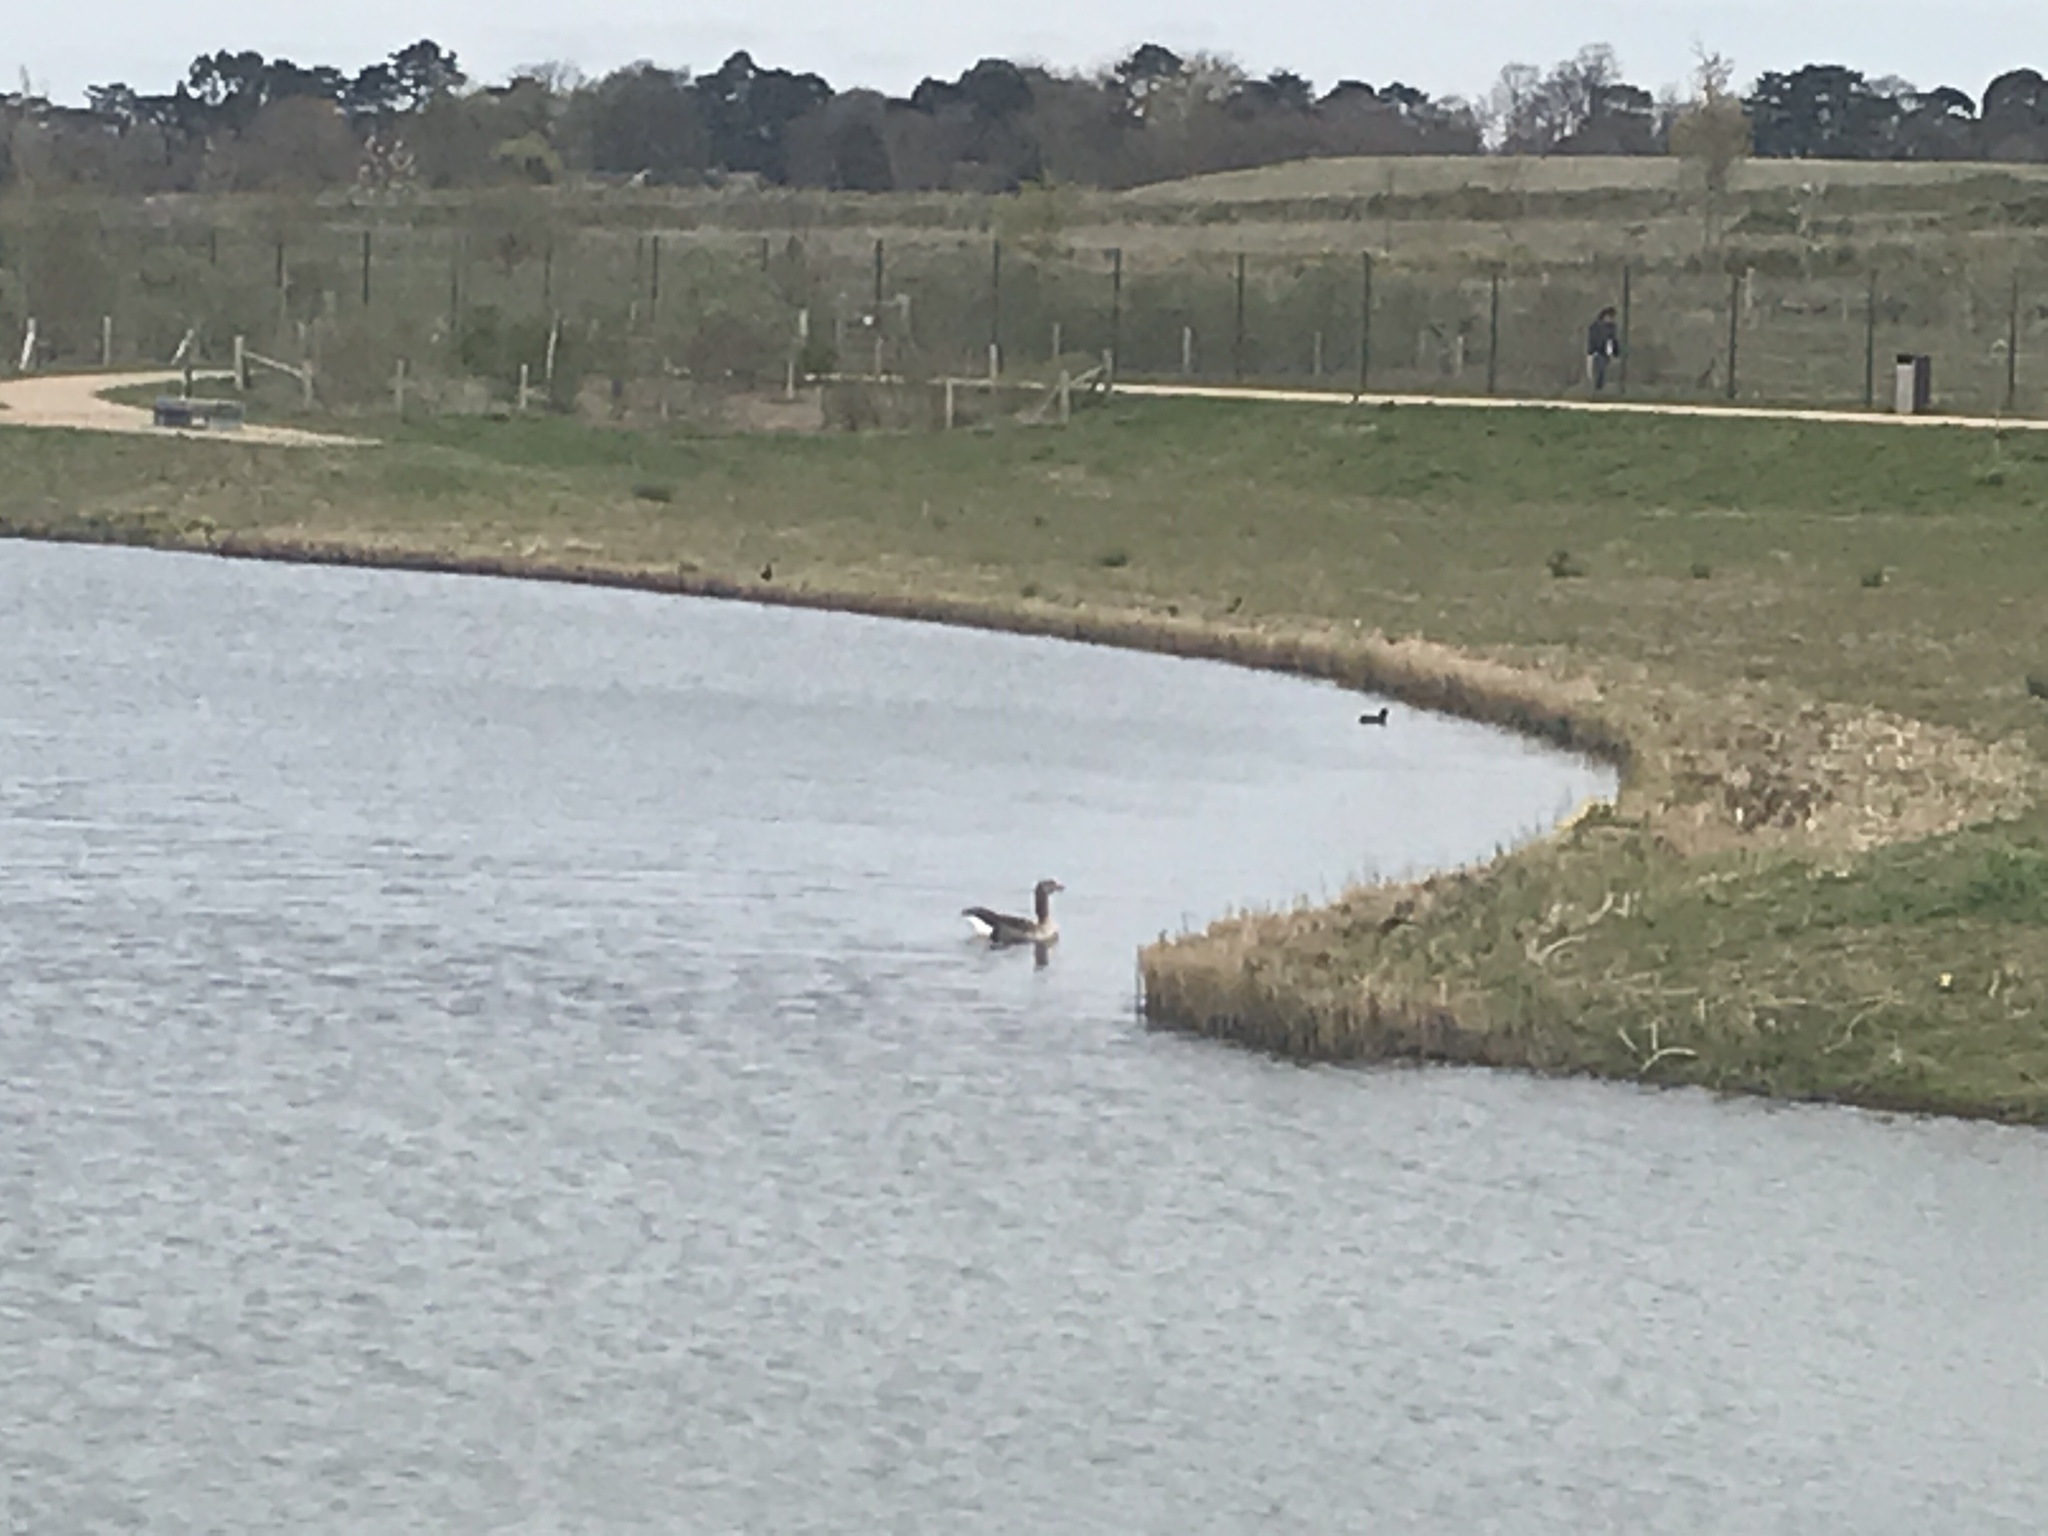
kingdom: Animalia
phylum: Chordata
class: Aves
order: Anseriformes
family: Anatidae
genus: Anser
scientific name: Anser anser
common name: Greylag goose
